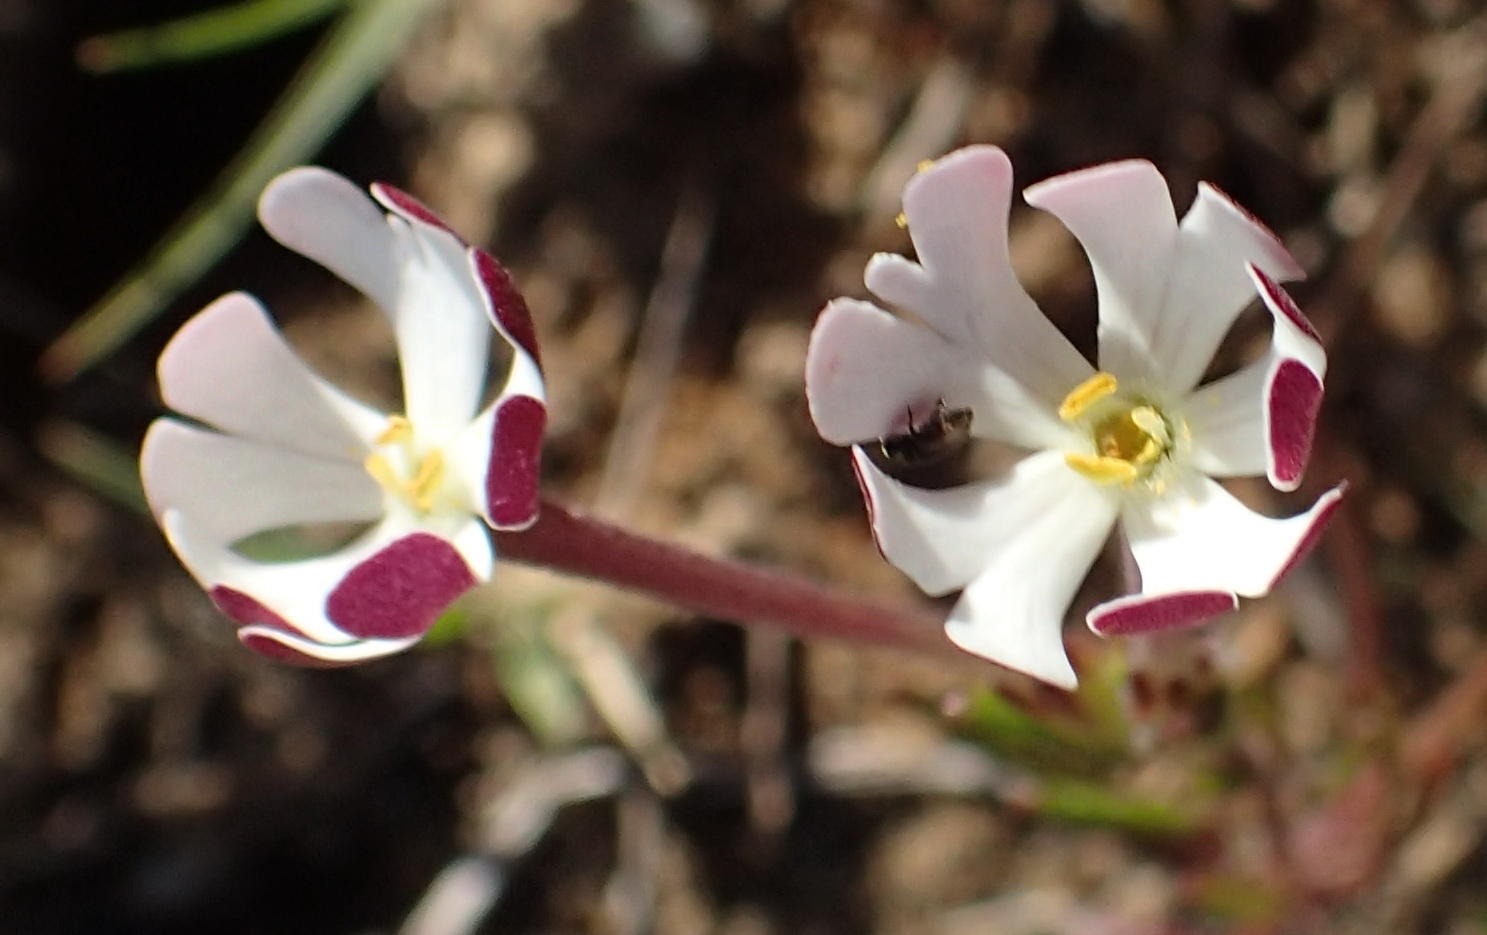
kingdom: Plantae
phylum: Tracheophyta
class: Magnoliopsida
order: Lamiales
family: Scrophulariaceae
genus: Zaluzianskya
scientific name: Zaluzianskya capensis
